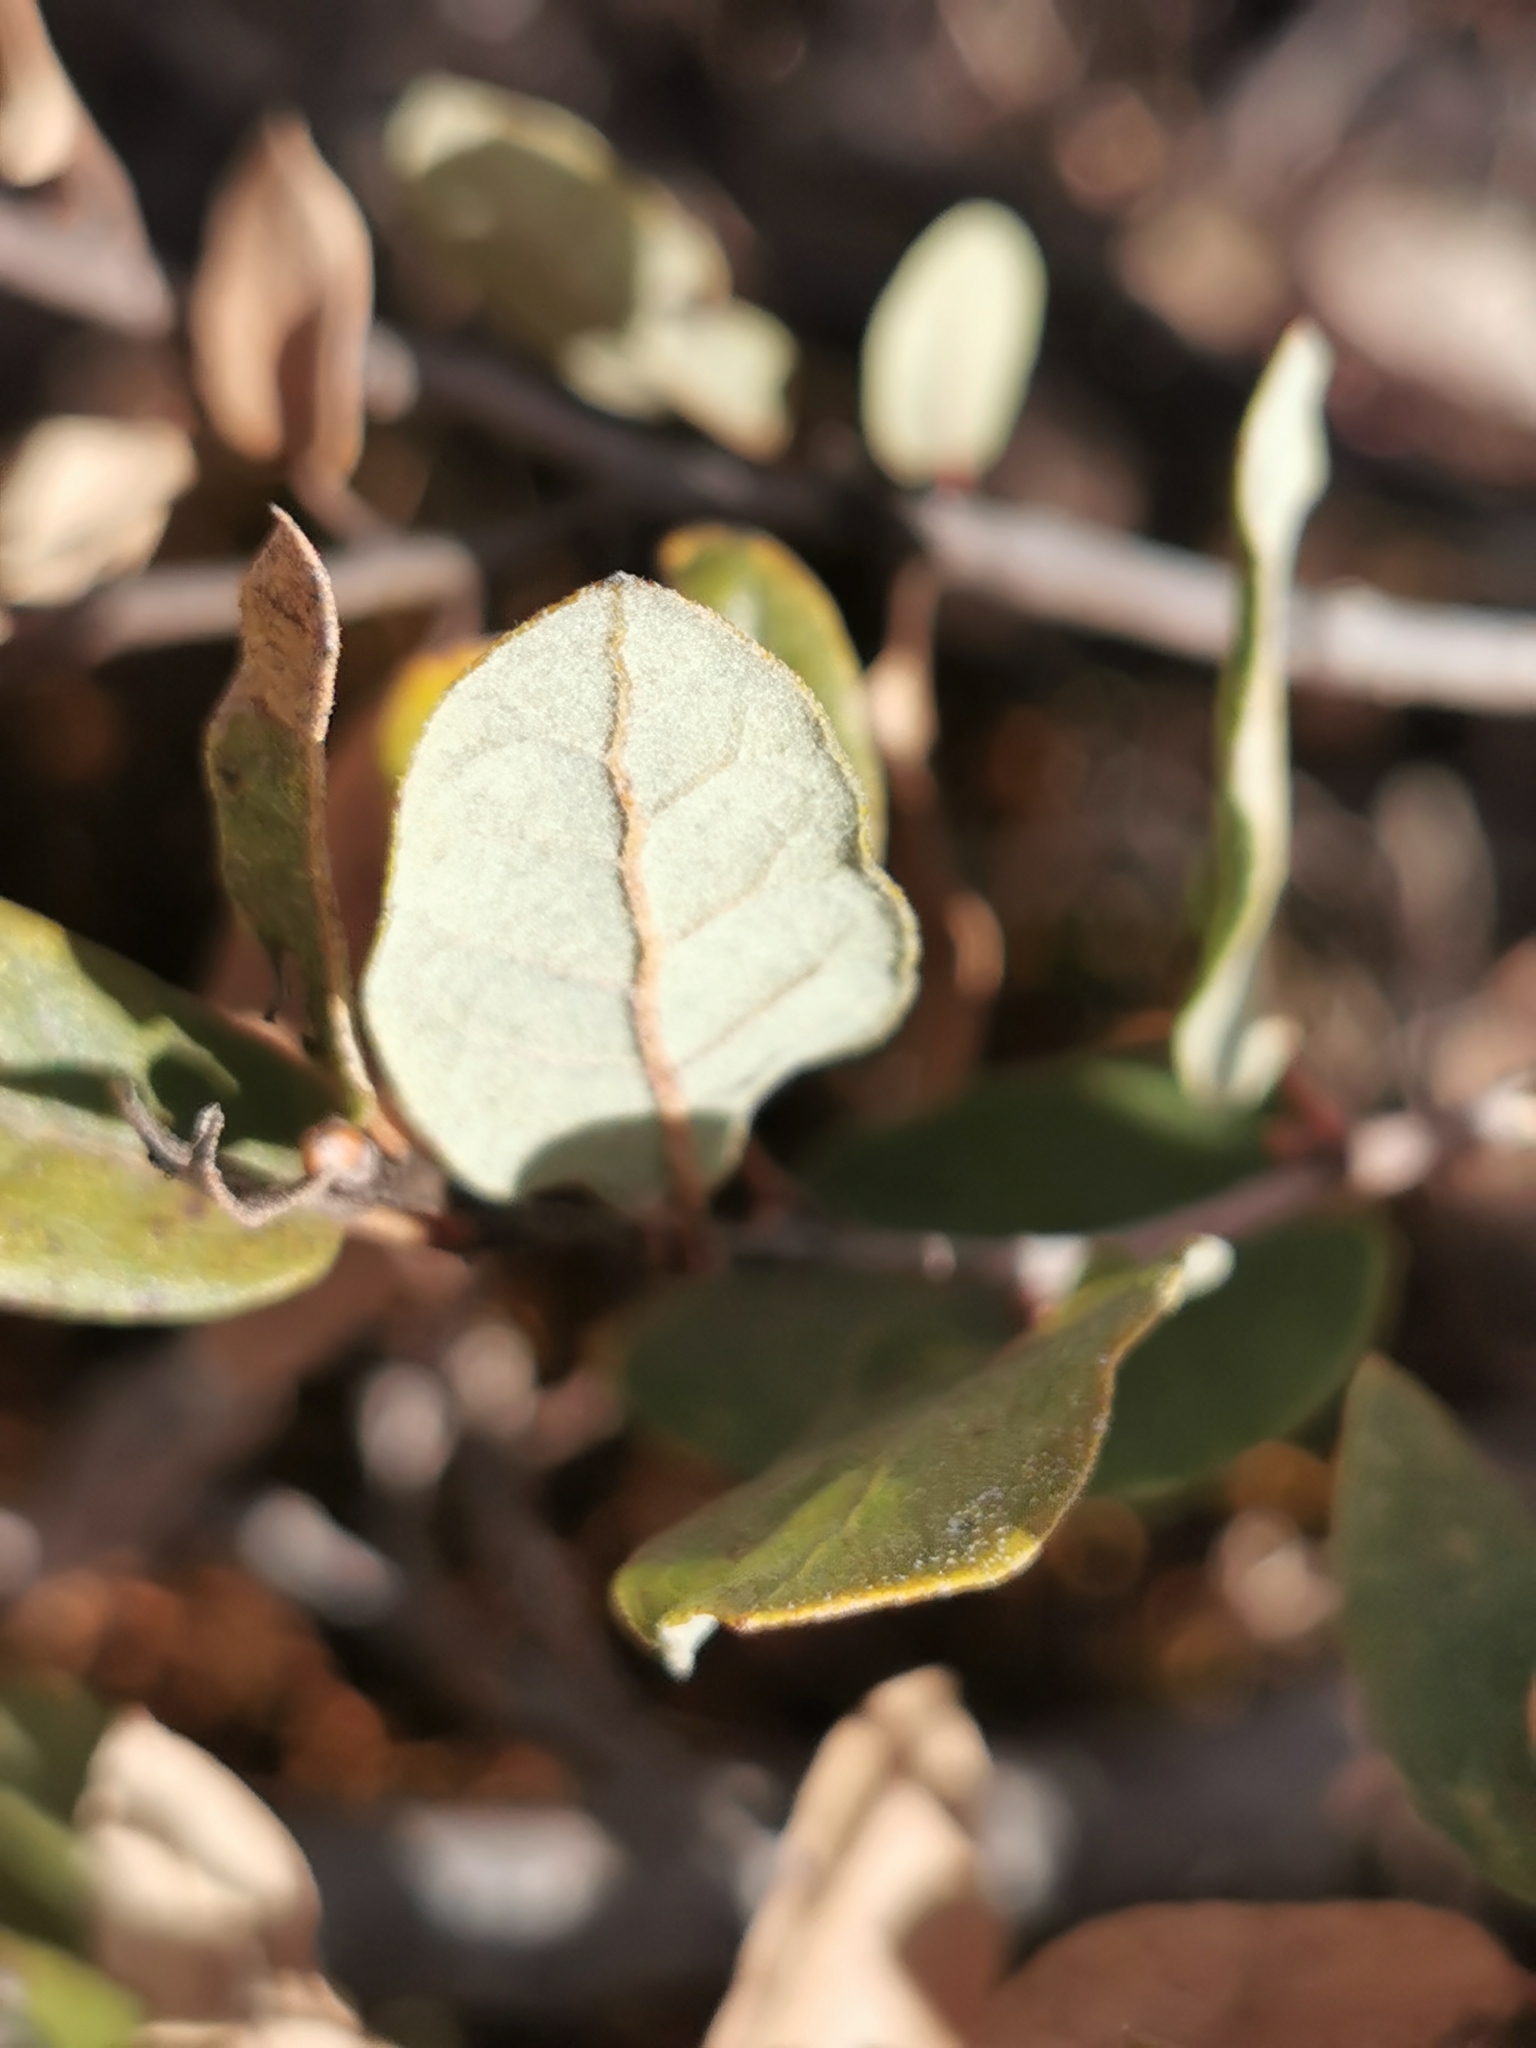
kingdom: Plantae
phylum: Tracheophyta
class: Magnoliopsida
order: Fagales
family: Fagaceae
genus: Quercus
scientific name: Quercus striatula
